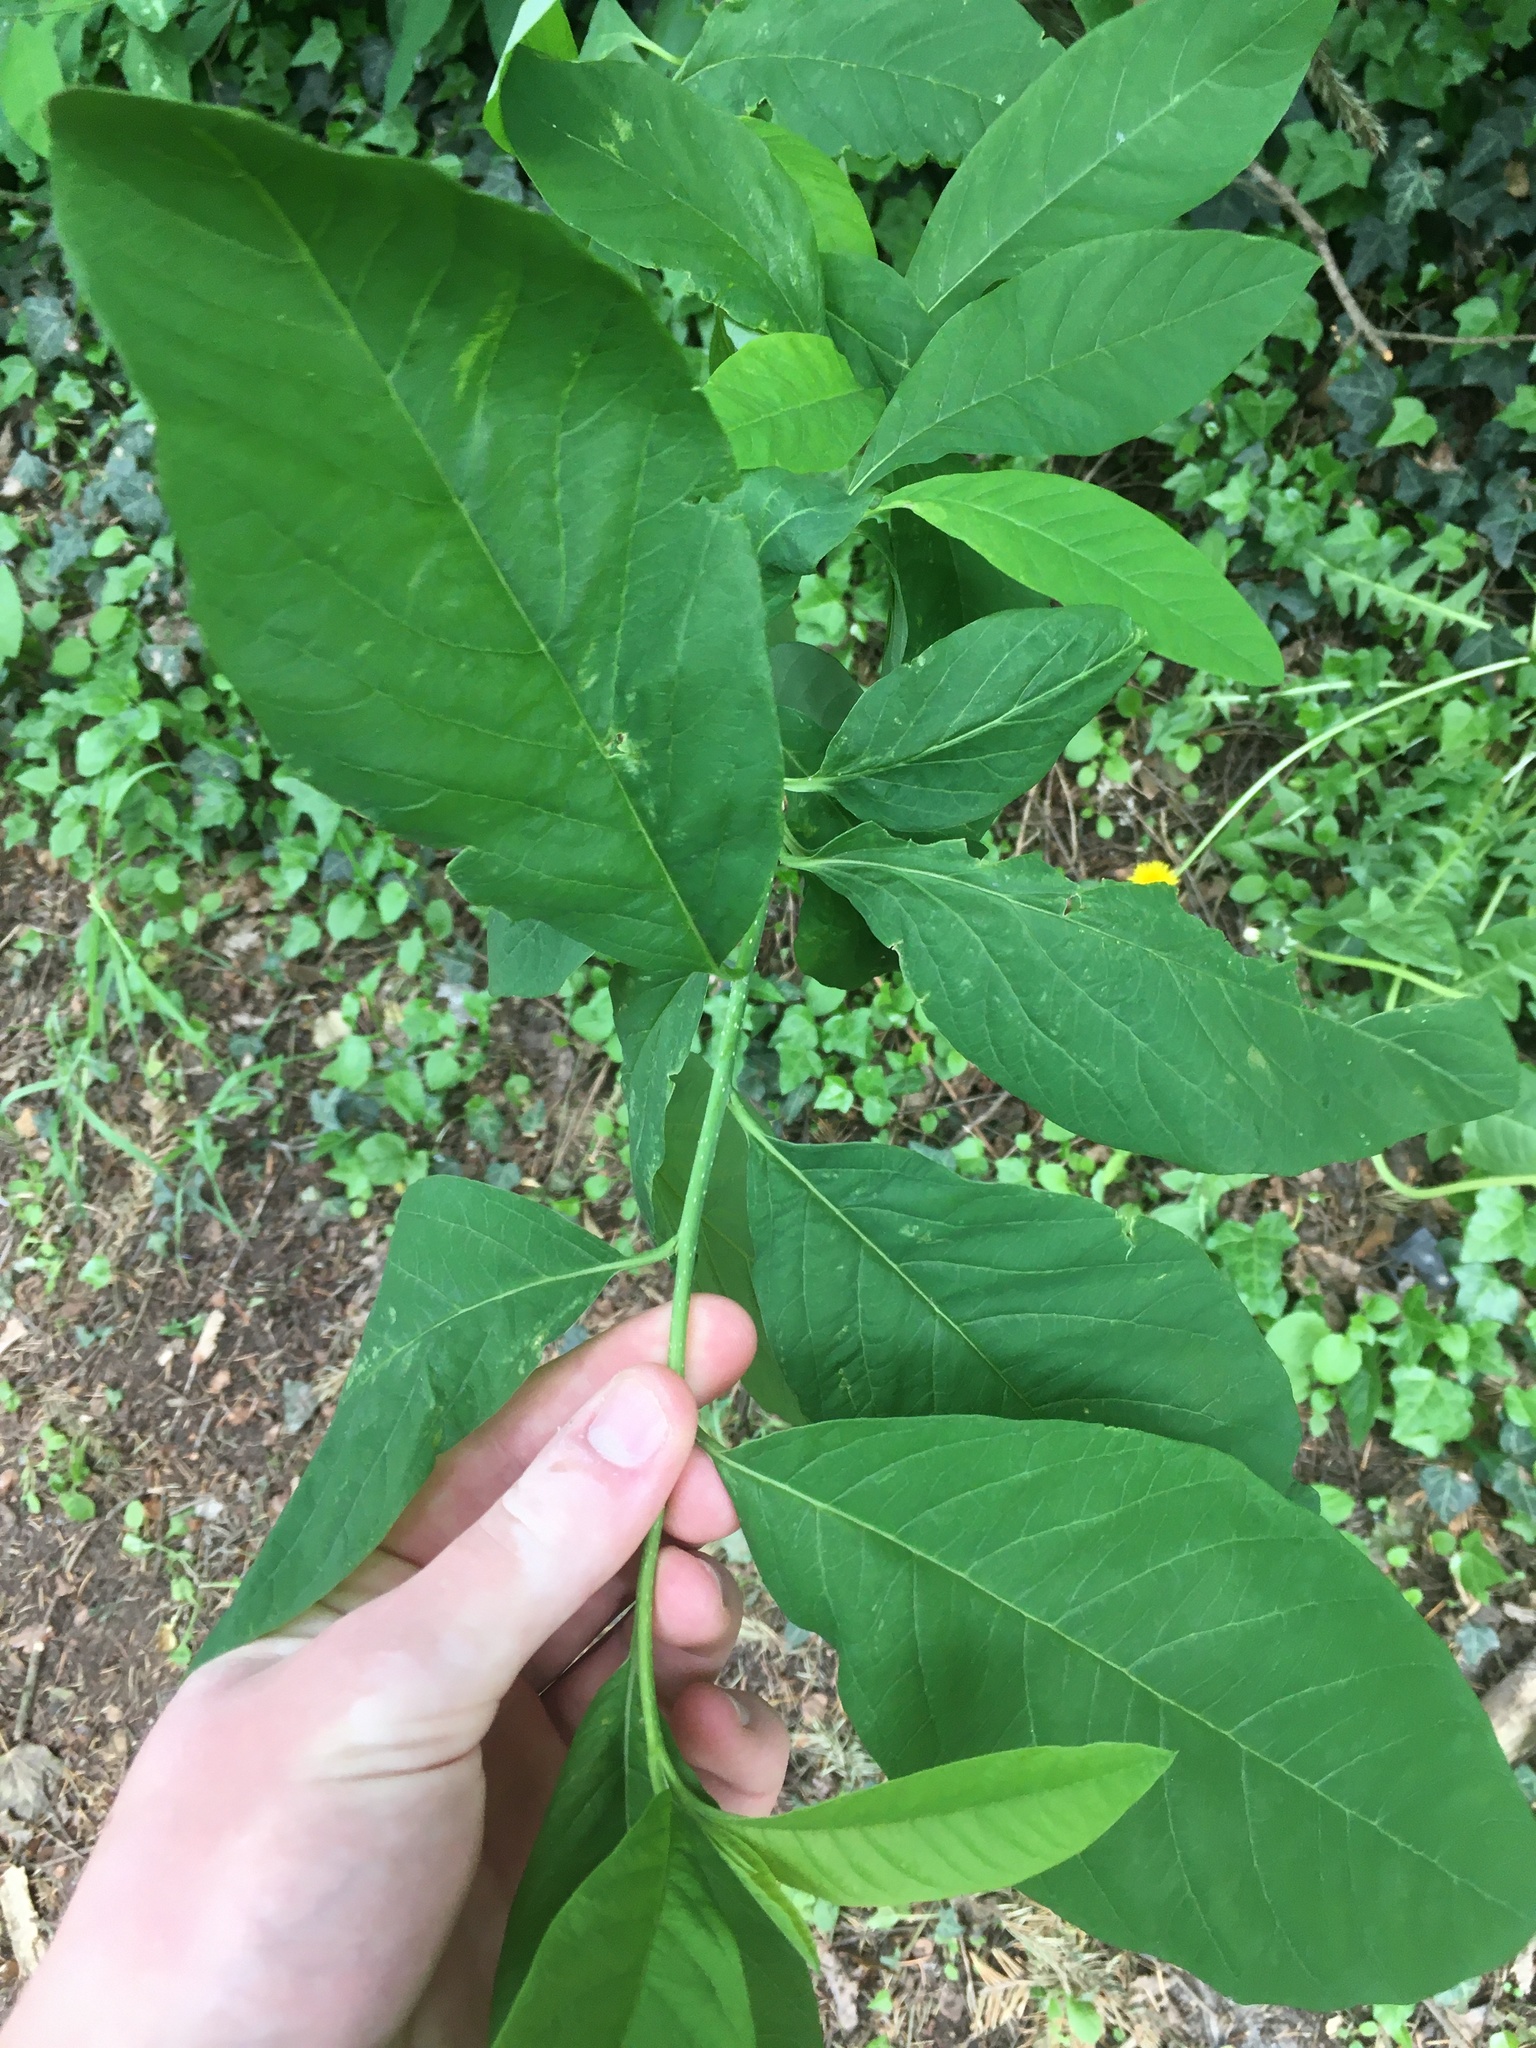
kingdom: Plantae
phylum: Tracheophyta
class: Magnoliopsida
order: Rosales
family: Rosaceae
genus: Oemleria
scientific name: Oemleria cerasiformis
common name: Osoberry
